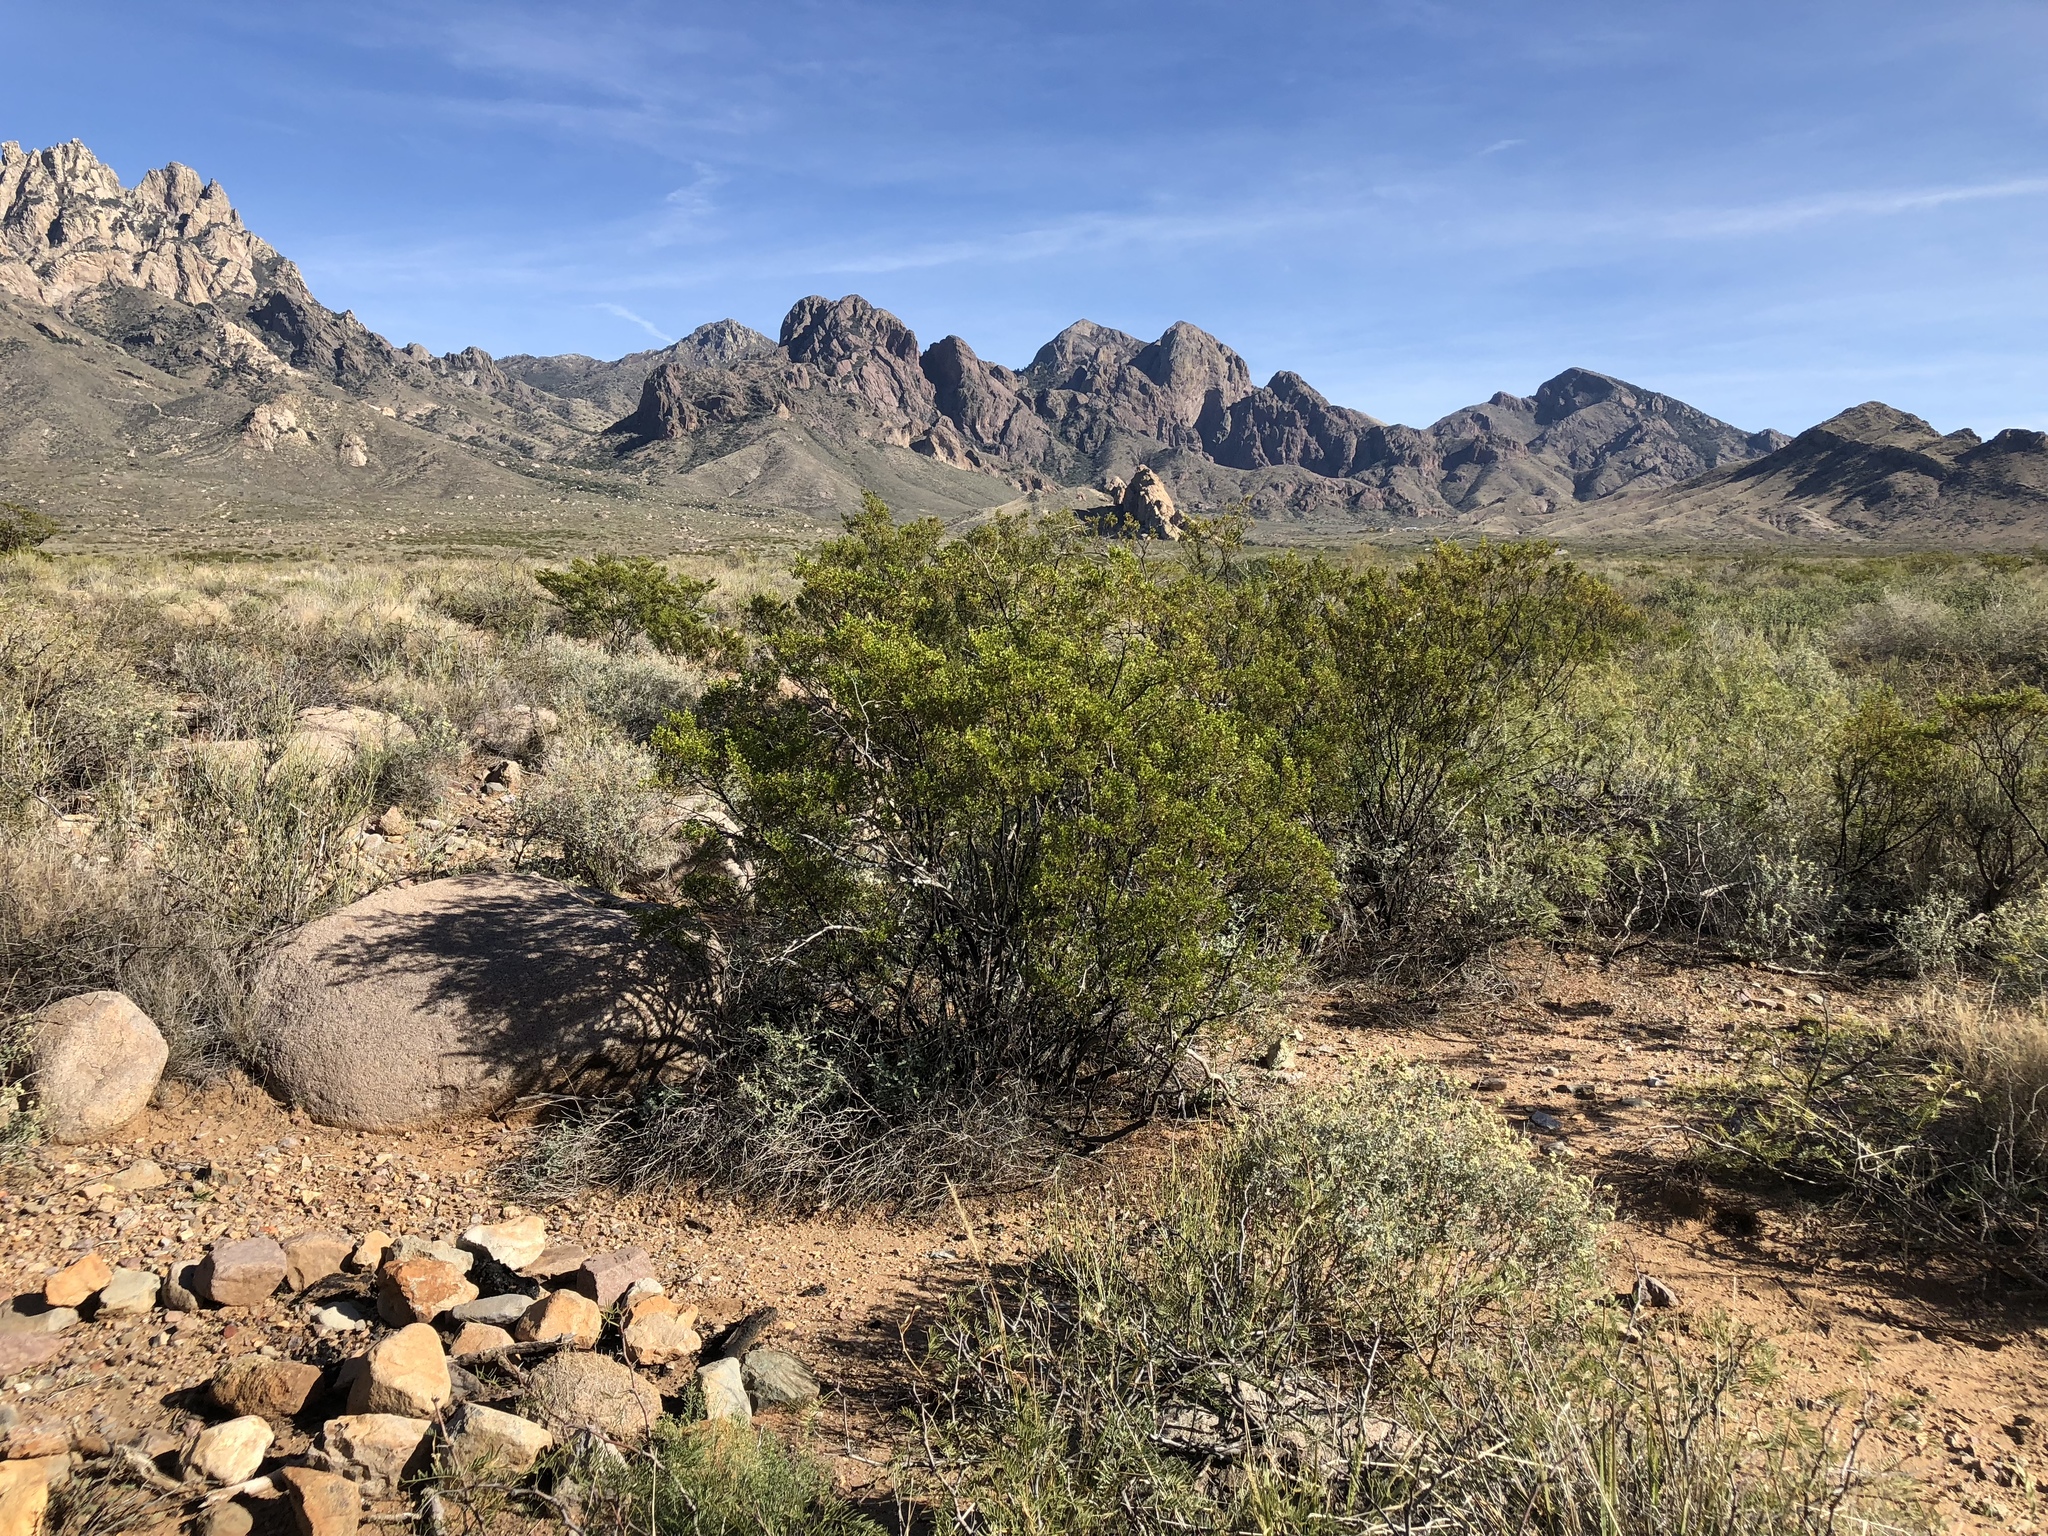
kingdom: Plantae
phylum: Tracheophyta
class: Magnoliopsida
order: Zygophyllales
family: Zygophyllaceae
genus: Larrea
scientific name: Larrea tridentata
